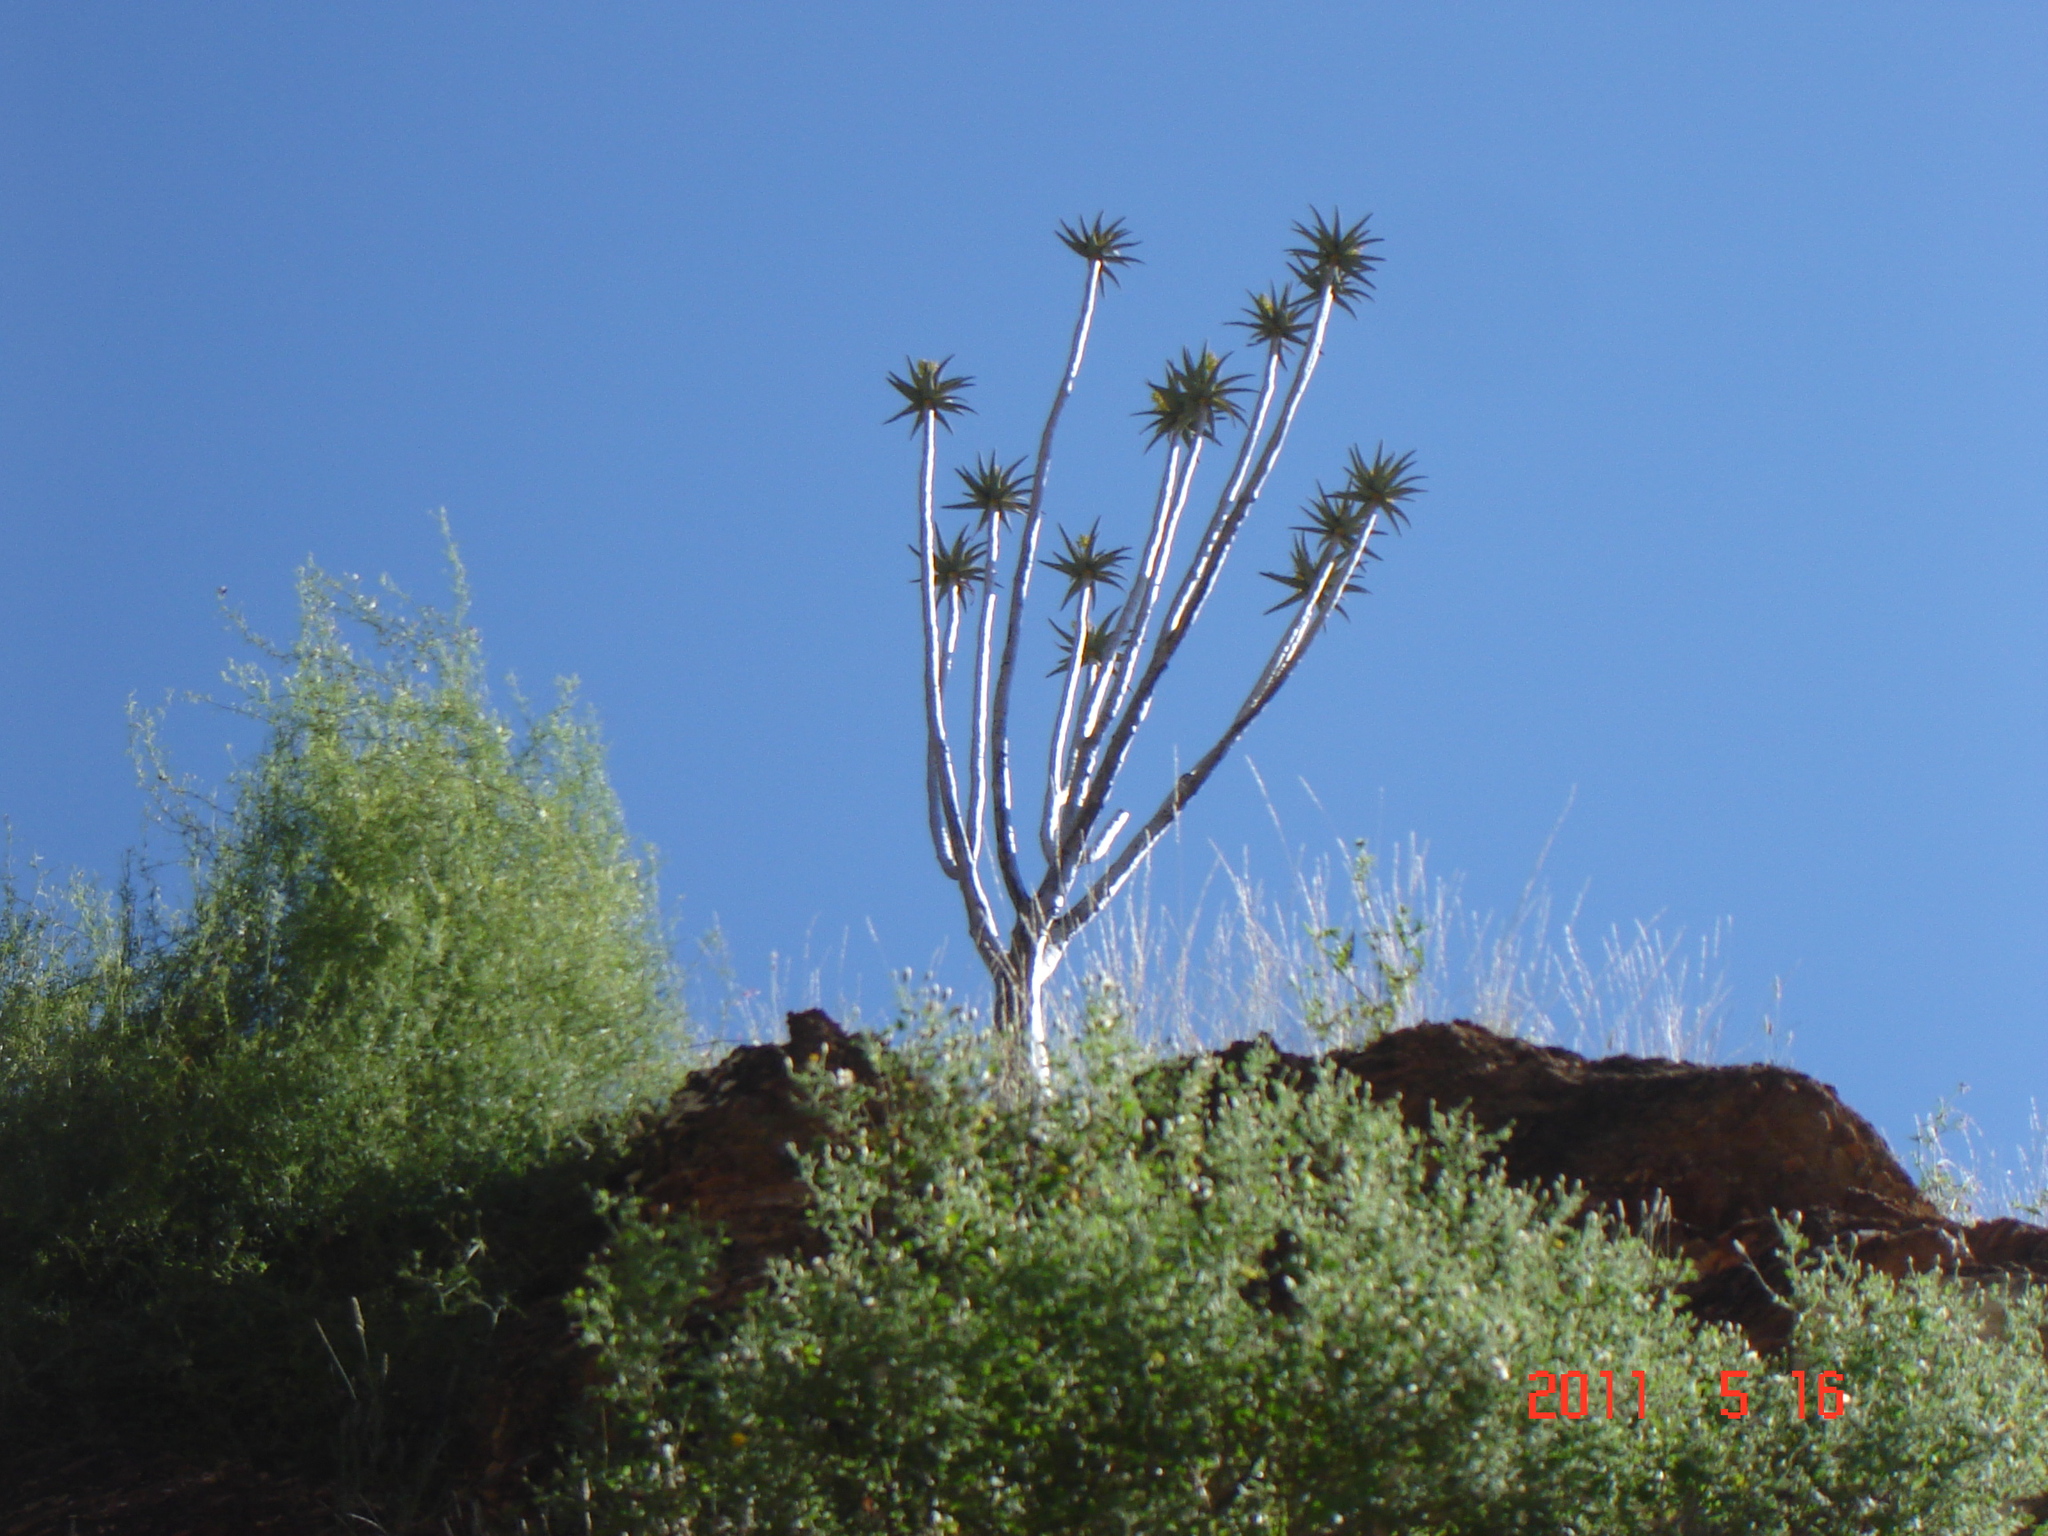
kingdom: Plantae
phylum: Tracheophyta
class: Liliopsida
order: Asparagales
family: Asphodelaceae
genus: Aloidendron
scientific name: Aloidendron dichotomum
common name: Quiver tree
